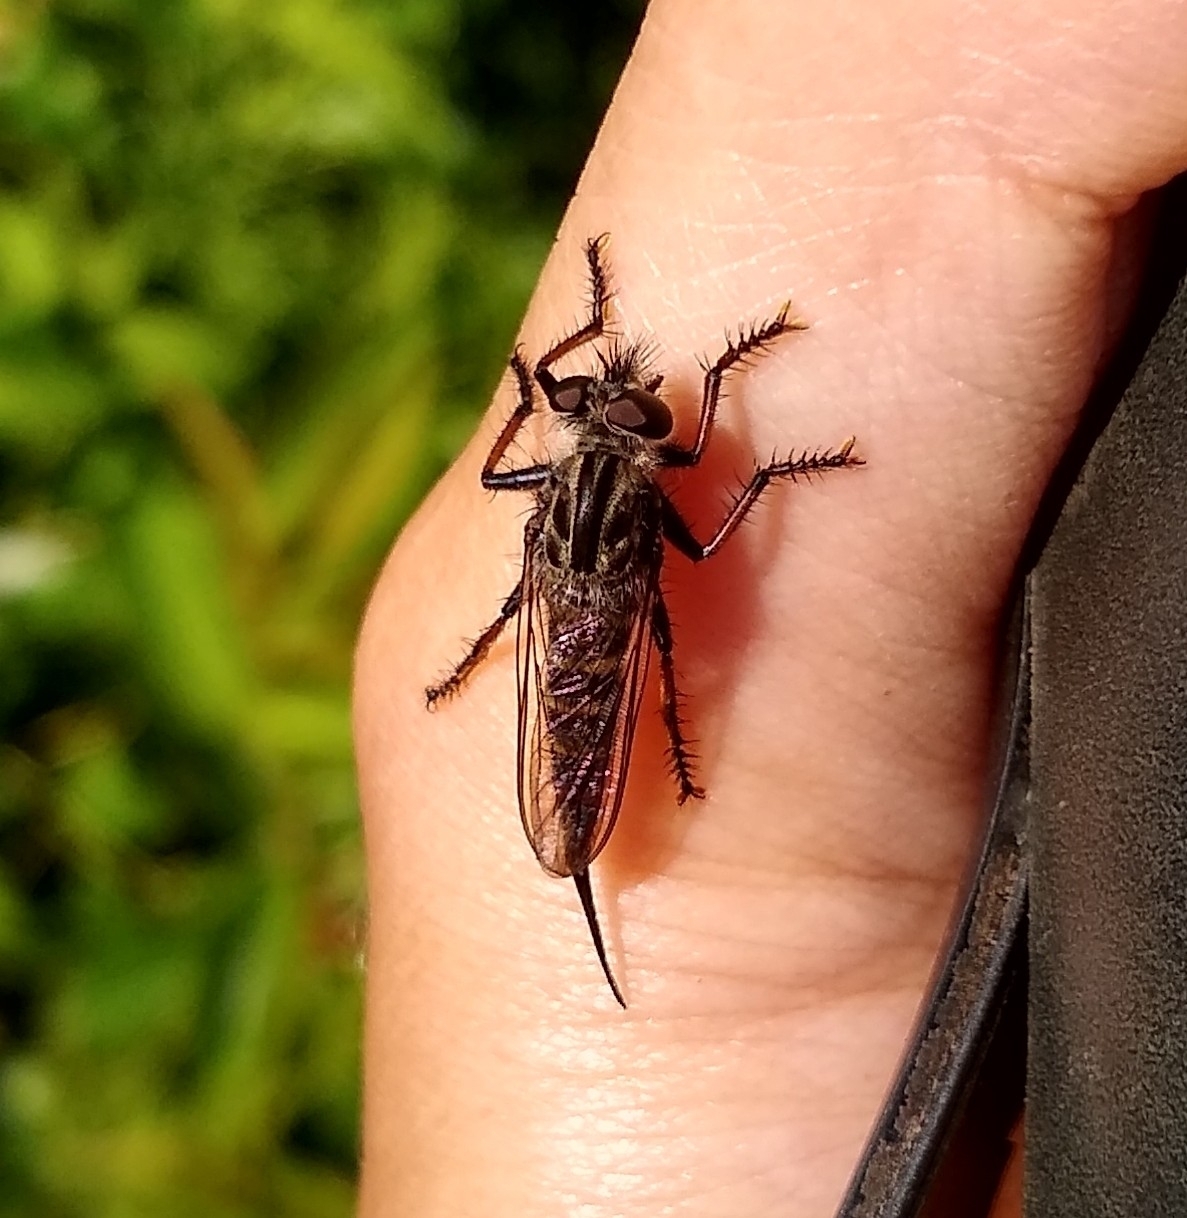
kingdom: Animalia
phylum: Arthropoda
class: Insecta
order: Diptera
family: Asilidae
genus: Efferia
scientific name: Efferia aestuans
